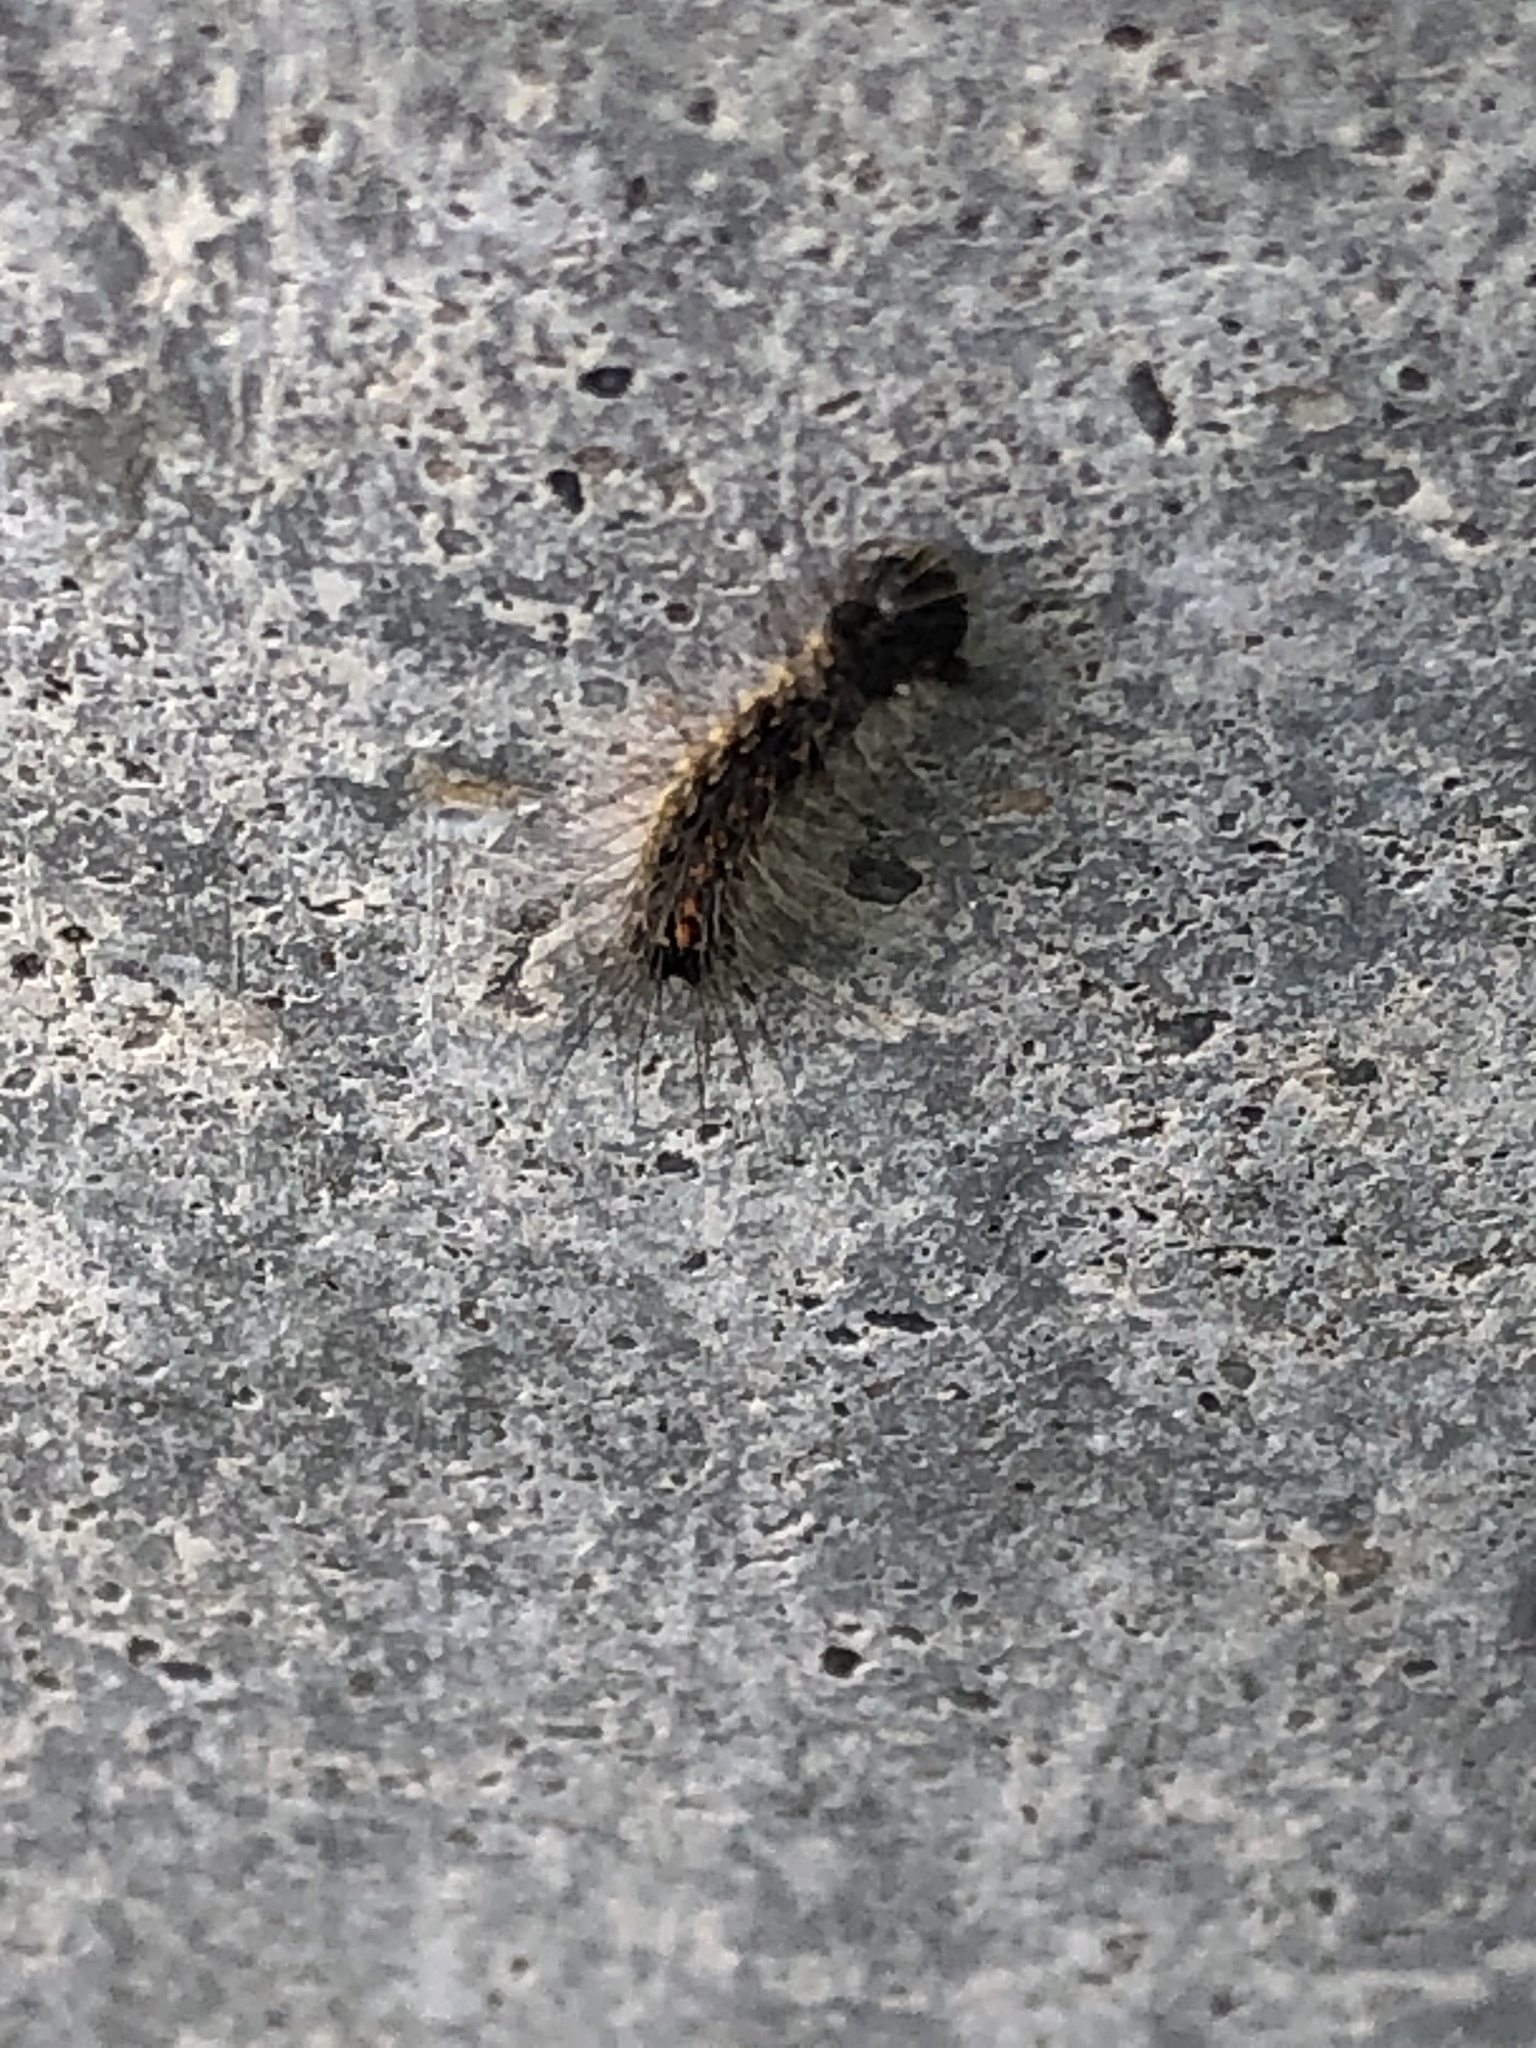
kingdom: Animalia
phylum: Arthropoda
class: Insecta
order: Lepidoptera
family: Erebidae
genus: Lymantria
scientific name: Lymantria dispar
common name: Gypsy moth
